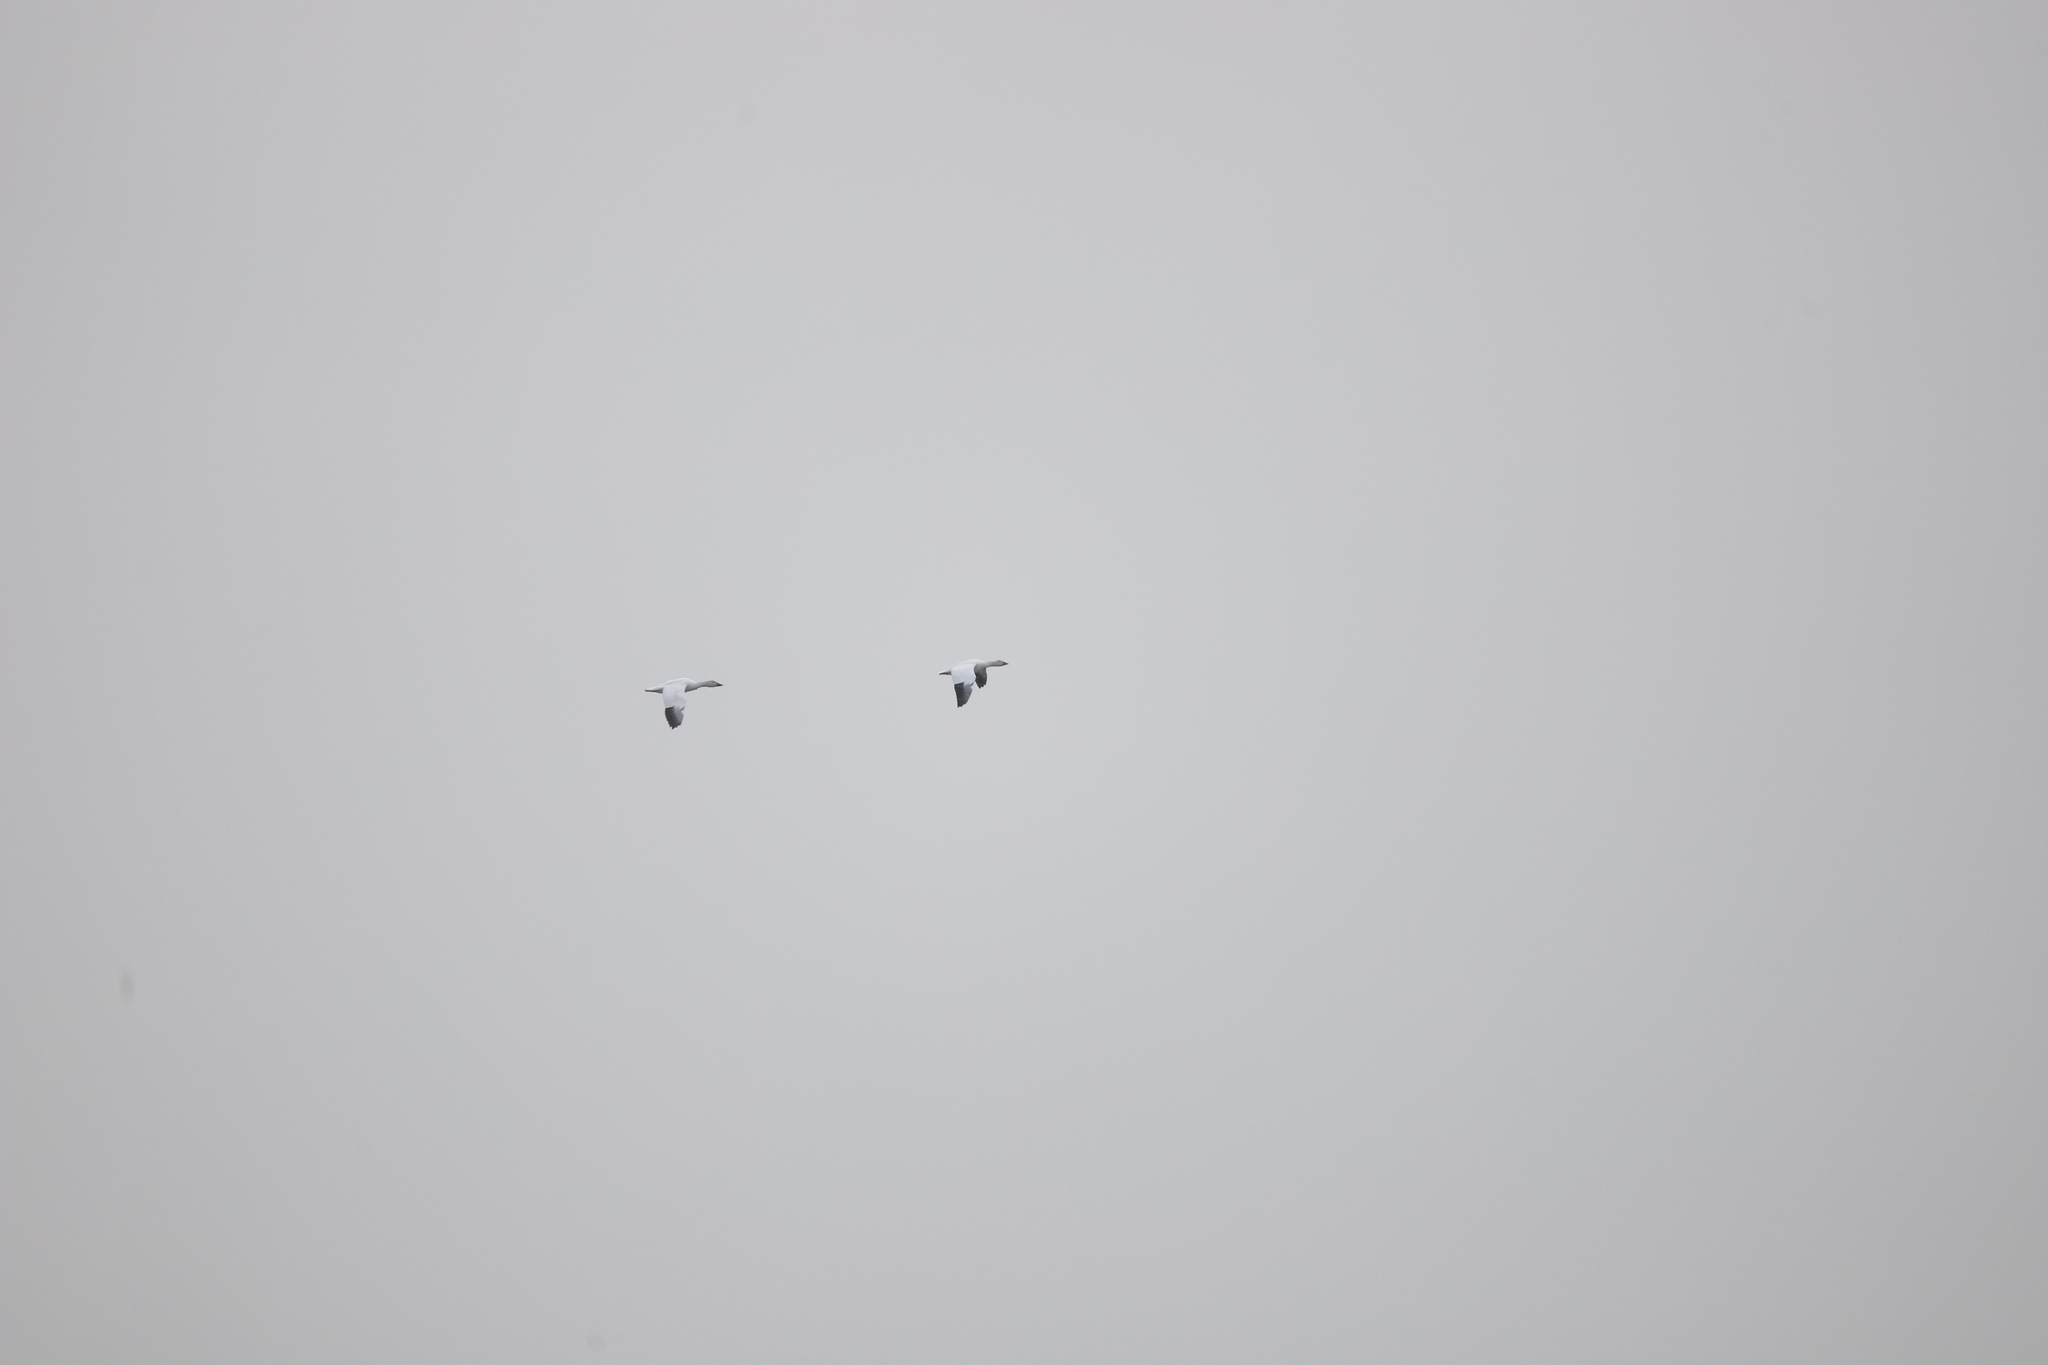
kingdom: Animalia
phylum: Chordata
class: Aves
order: Anseriformes
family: Anatidae
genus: Anser
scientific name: Anser caerulescens
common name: Snow goose
